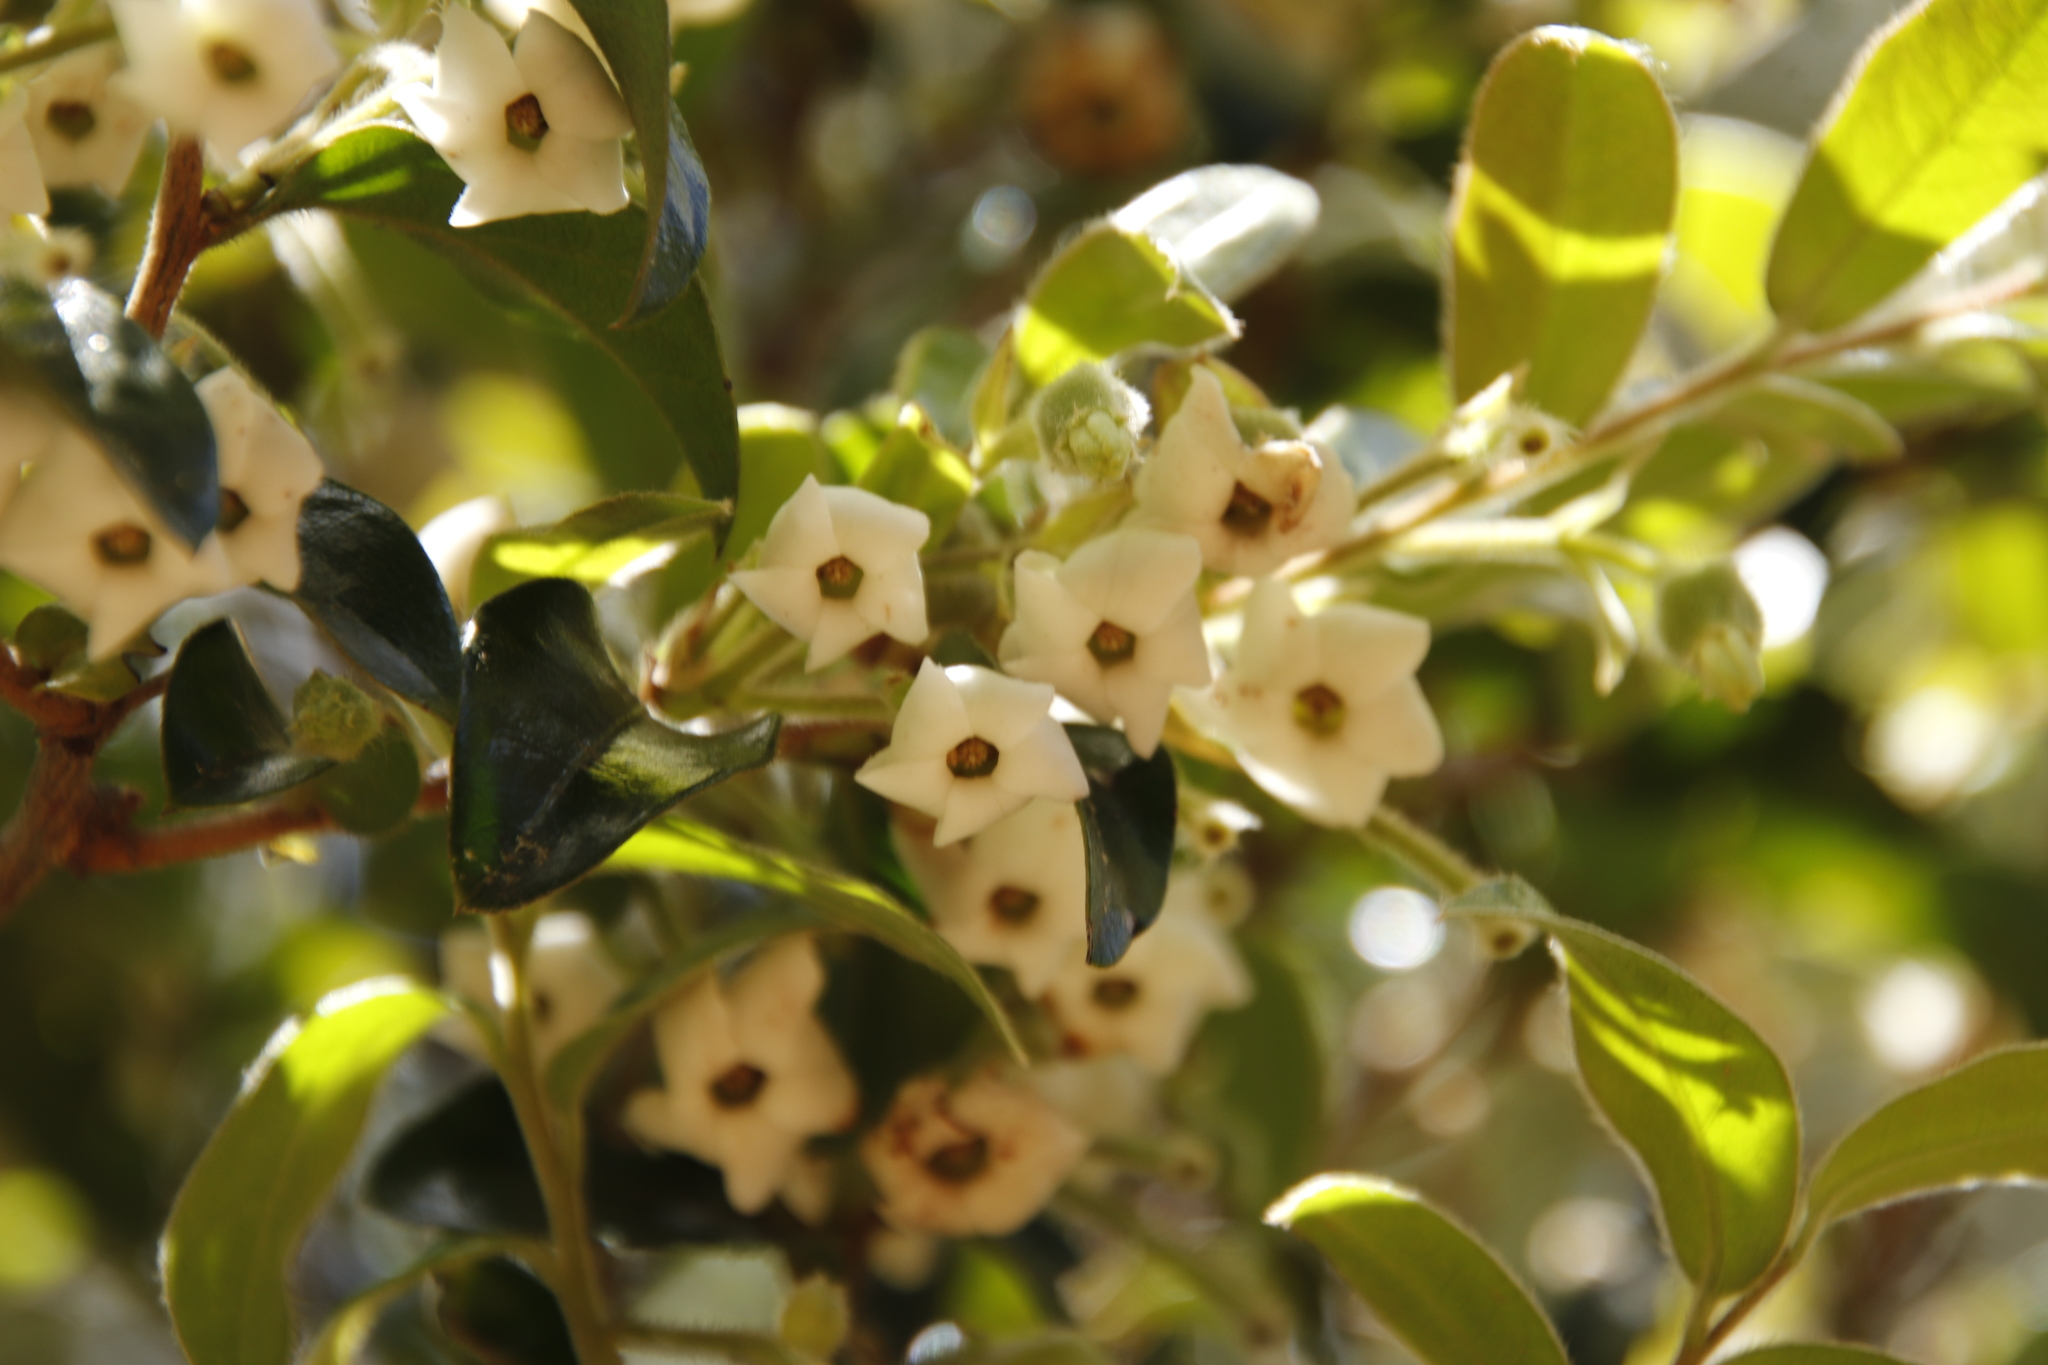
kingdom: Plantae
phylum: Tracheophyta
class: Magnoliopsida
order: Ericales
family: Ebenaceae
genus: Diospyros
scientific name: Diospyros whyteana
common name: Bladder-nut
